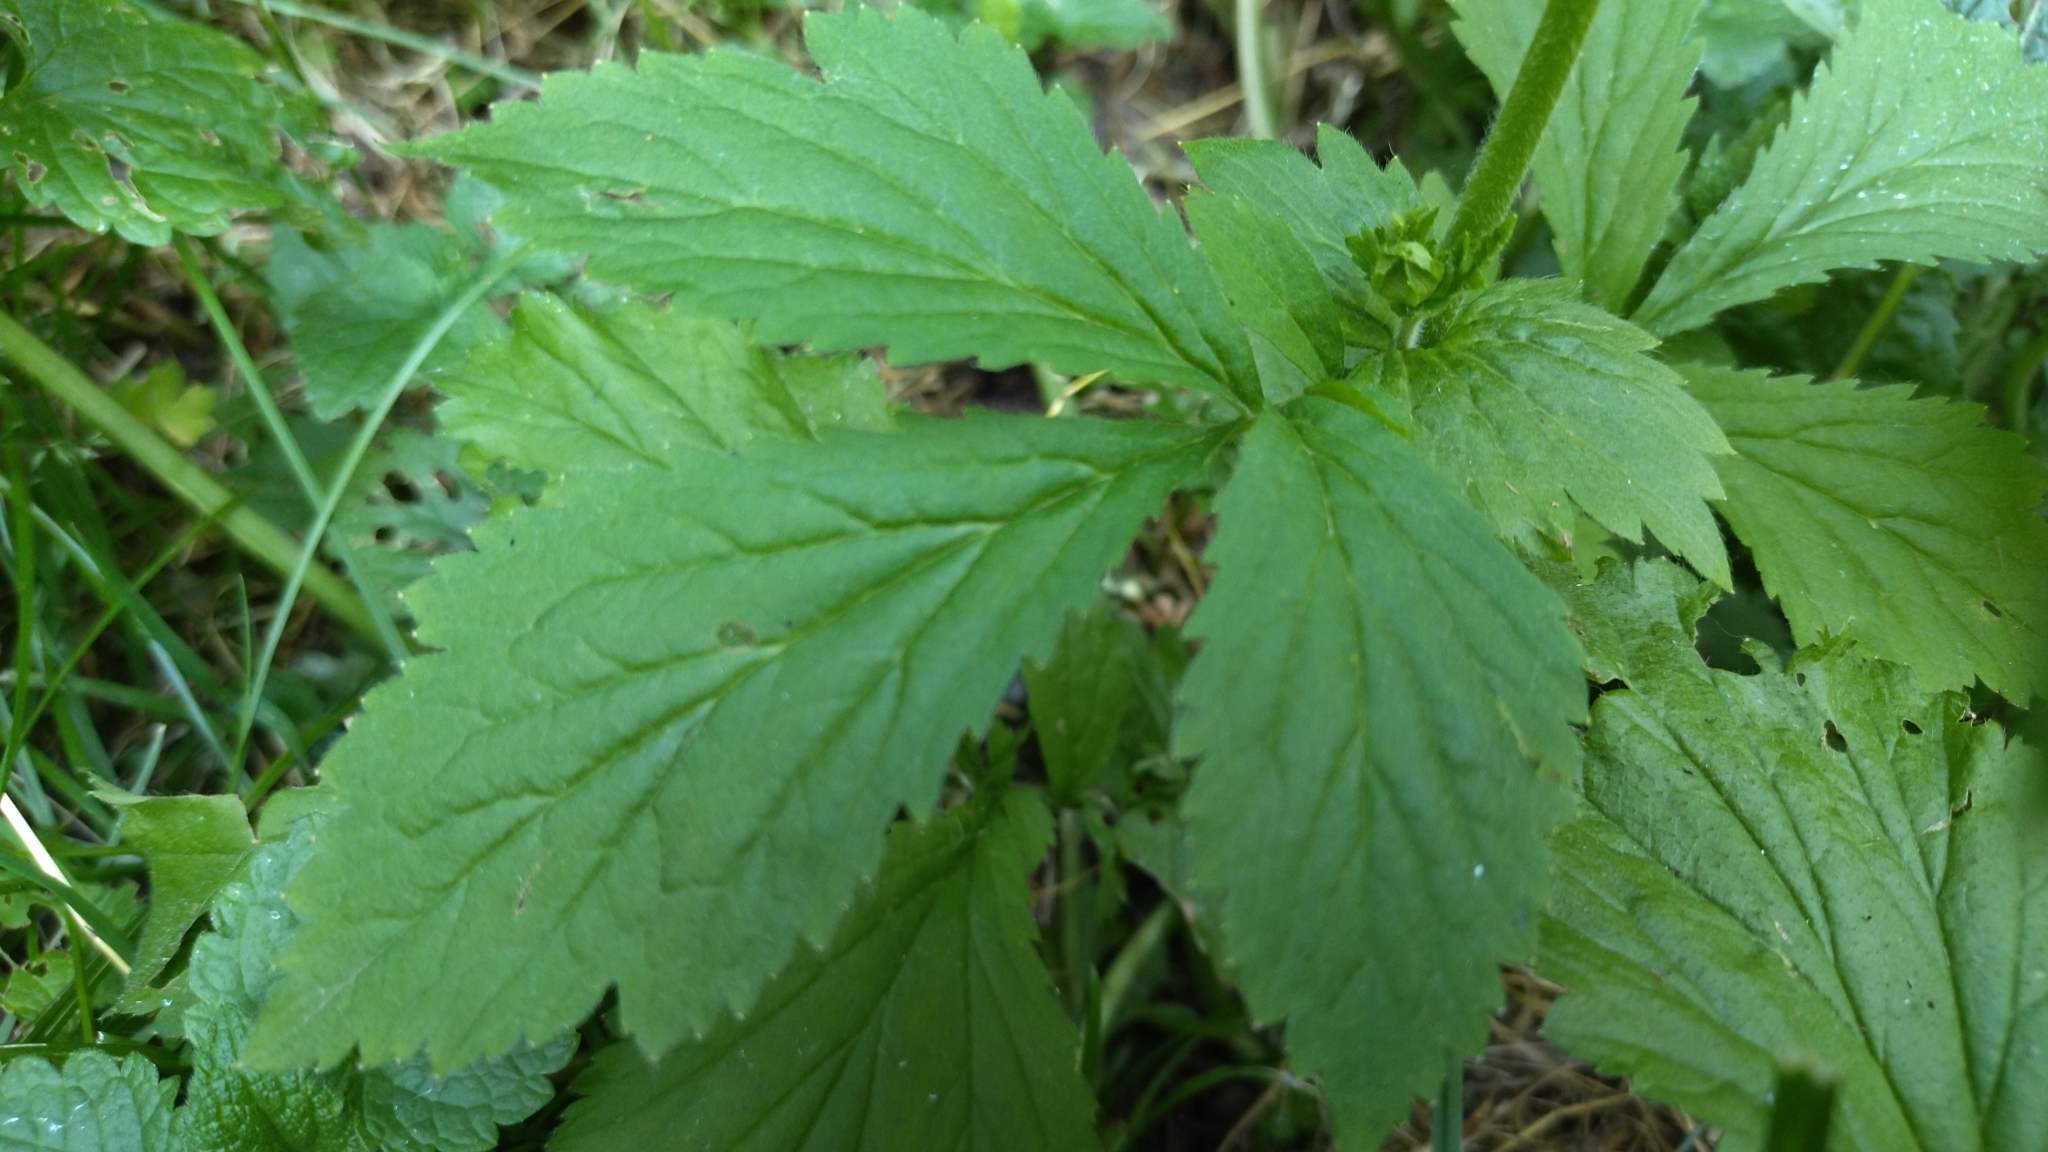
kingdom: Plantae
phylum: Tracheophyta
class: Magnoliopsida
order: Rosales
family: Rosaceae
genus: Geum
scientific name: Geum aleppicum
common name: Yellow avens
